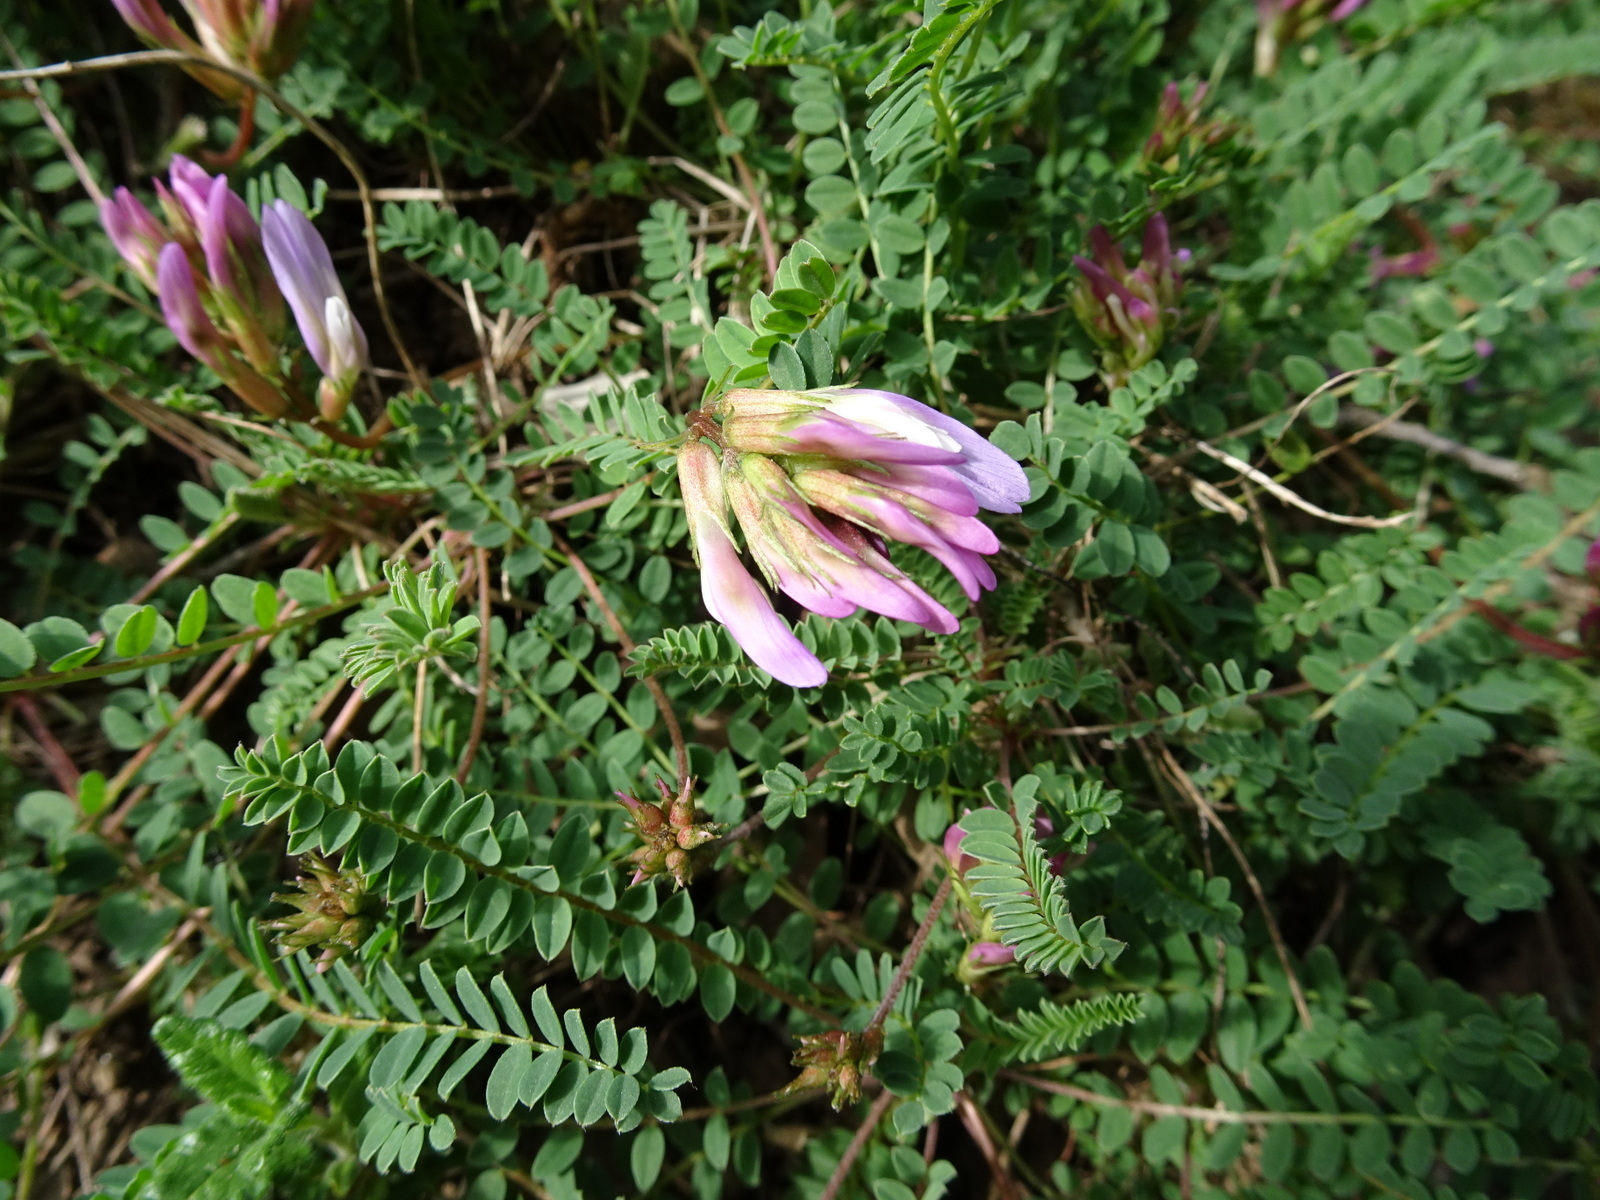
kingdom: Plantae
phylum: Tracheophyta
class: Magnoliopsida
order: Fabales
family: Fabaceae
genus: Astragalus
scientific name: Astragalus monspessulanus
